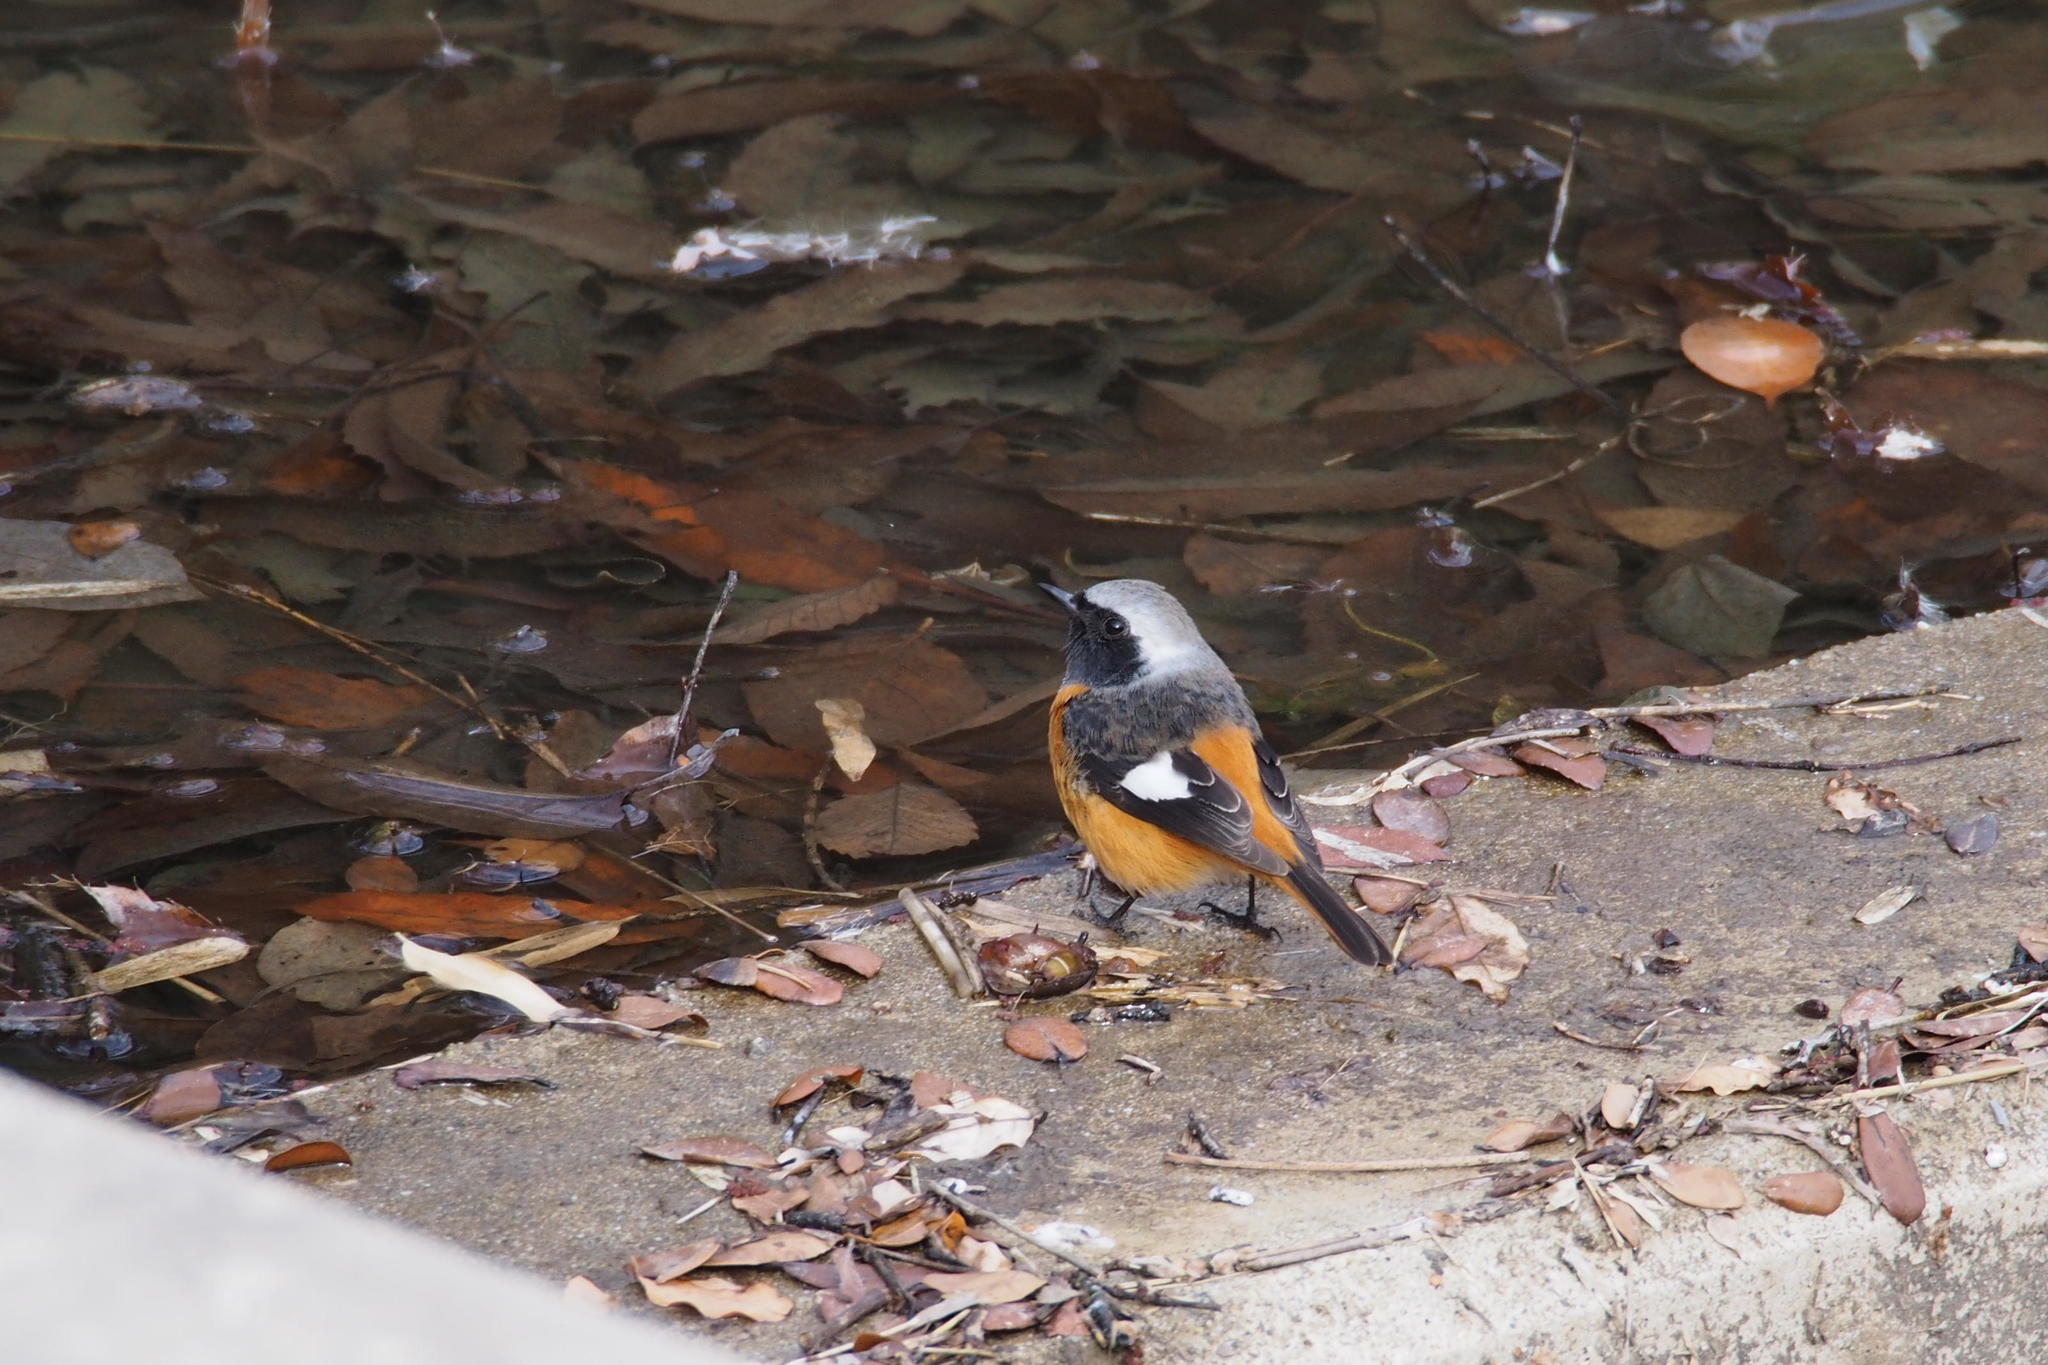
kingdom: Animalia
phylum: Chordata
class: Aves
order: Passeriformes
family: Muscicapidae
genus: Phoenicurus
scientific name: Phoenicurus auroreus
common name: Daurian redstart
